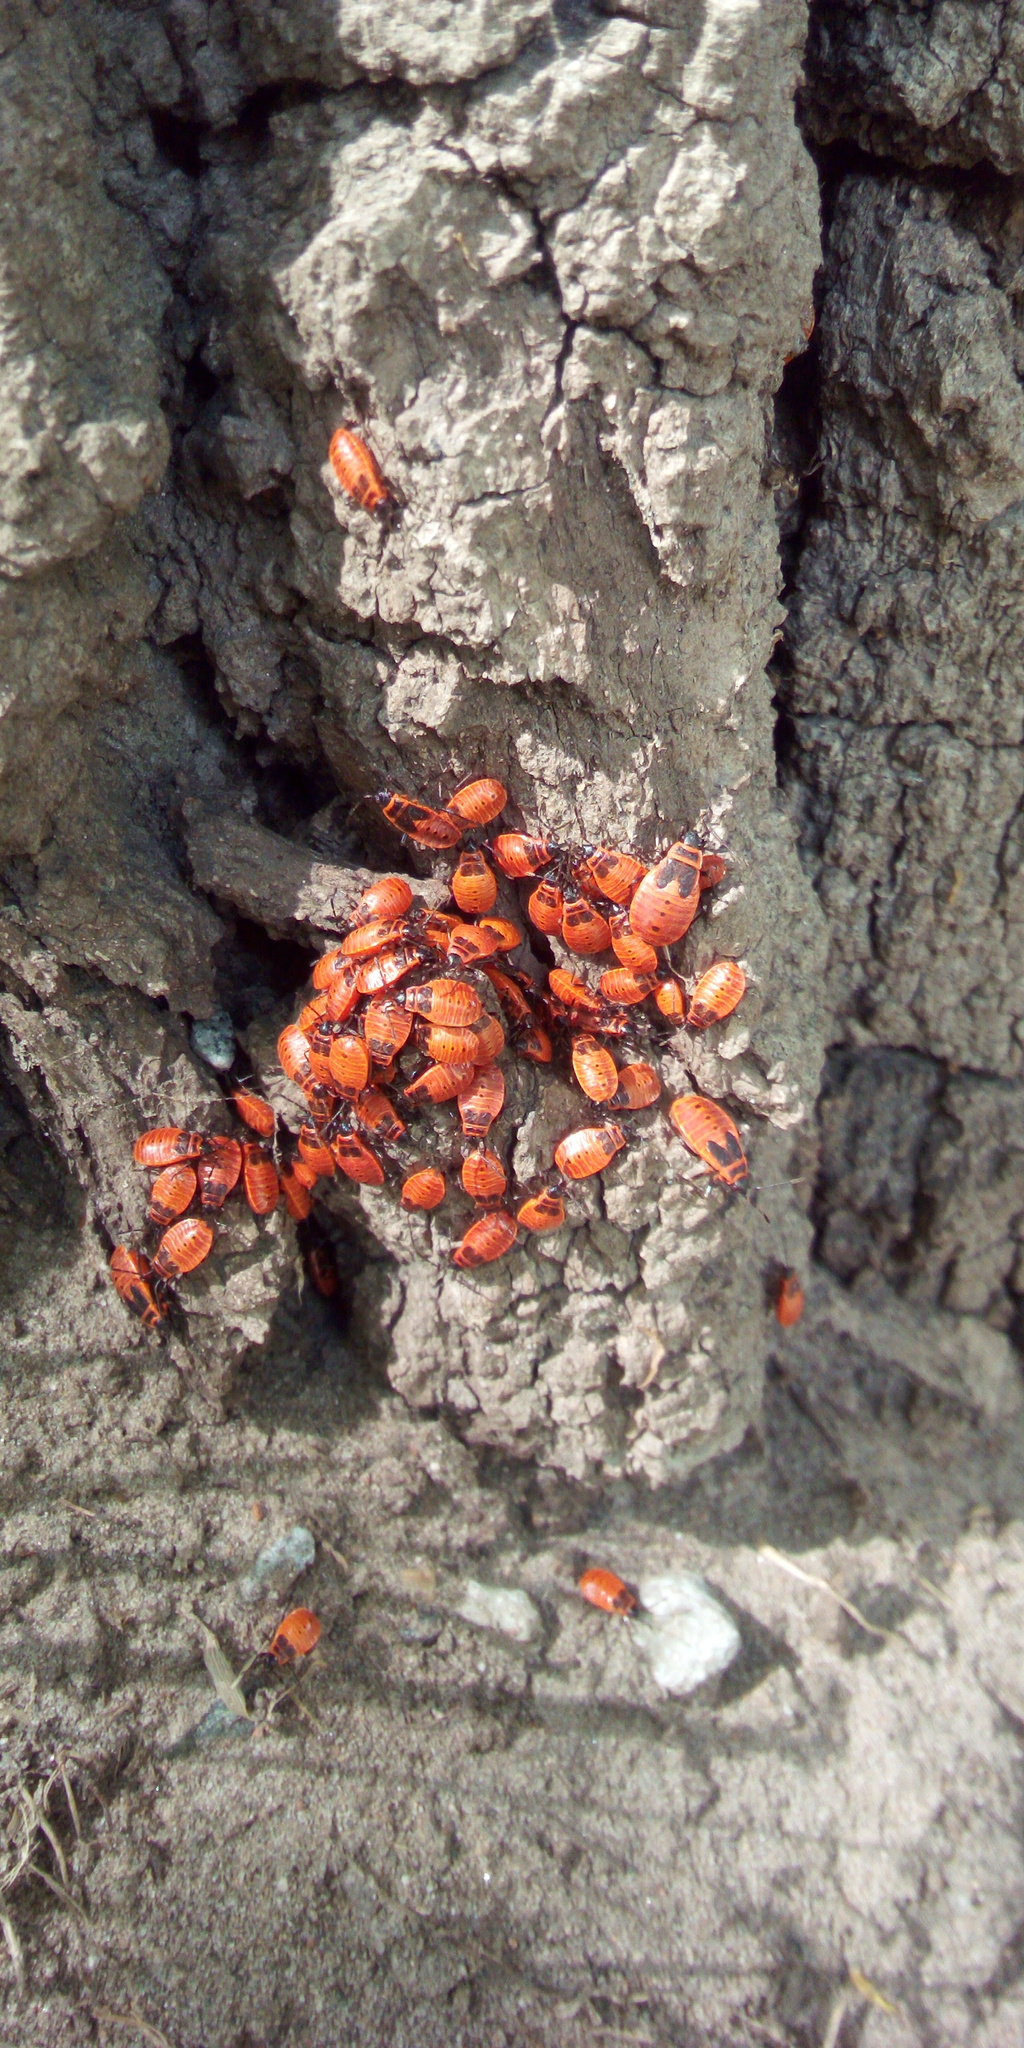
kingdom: Animalia
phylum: Arthropoda
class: Insecta
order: Hemiptera
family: Pyrrhocoridae
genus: Pyrrhocoris
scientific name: Pyrrhocoris apterus
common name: Firebug
